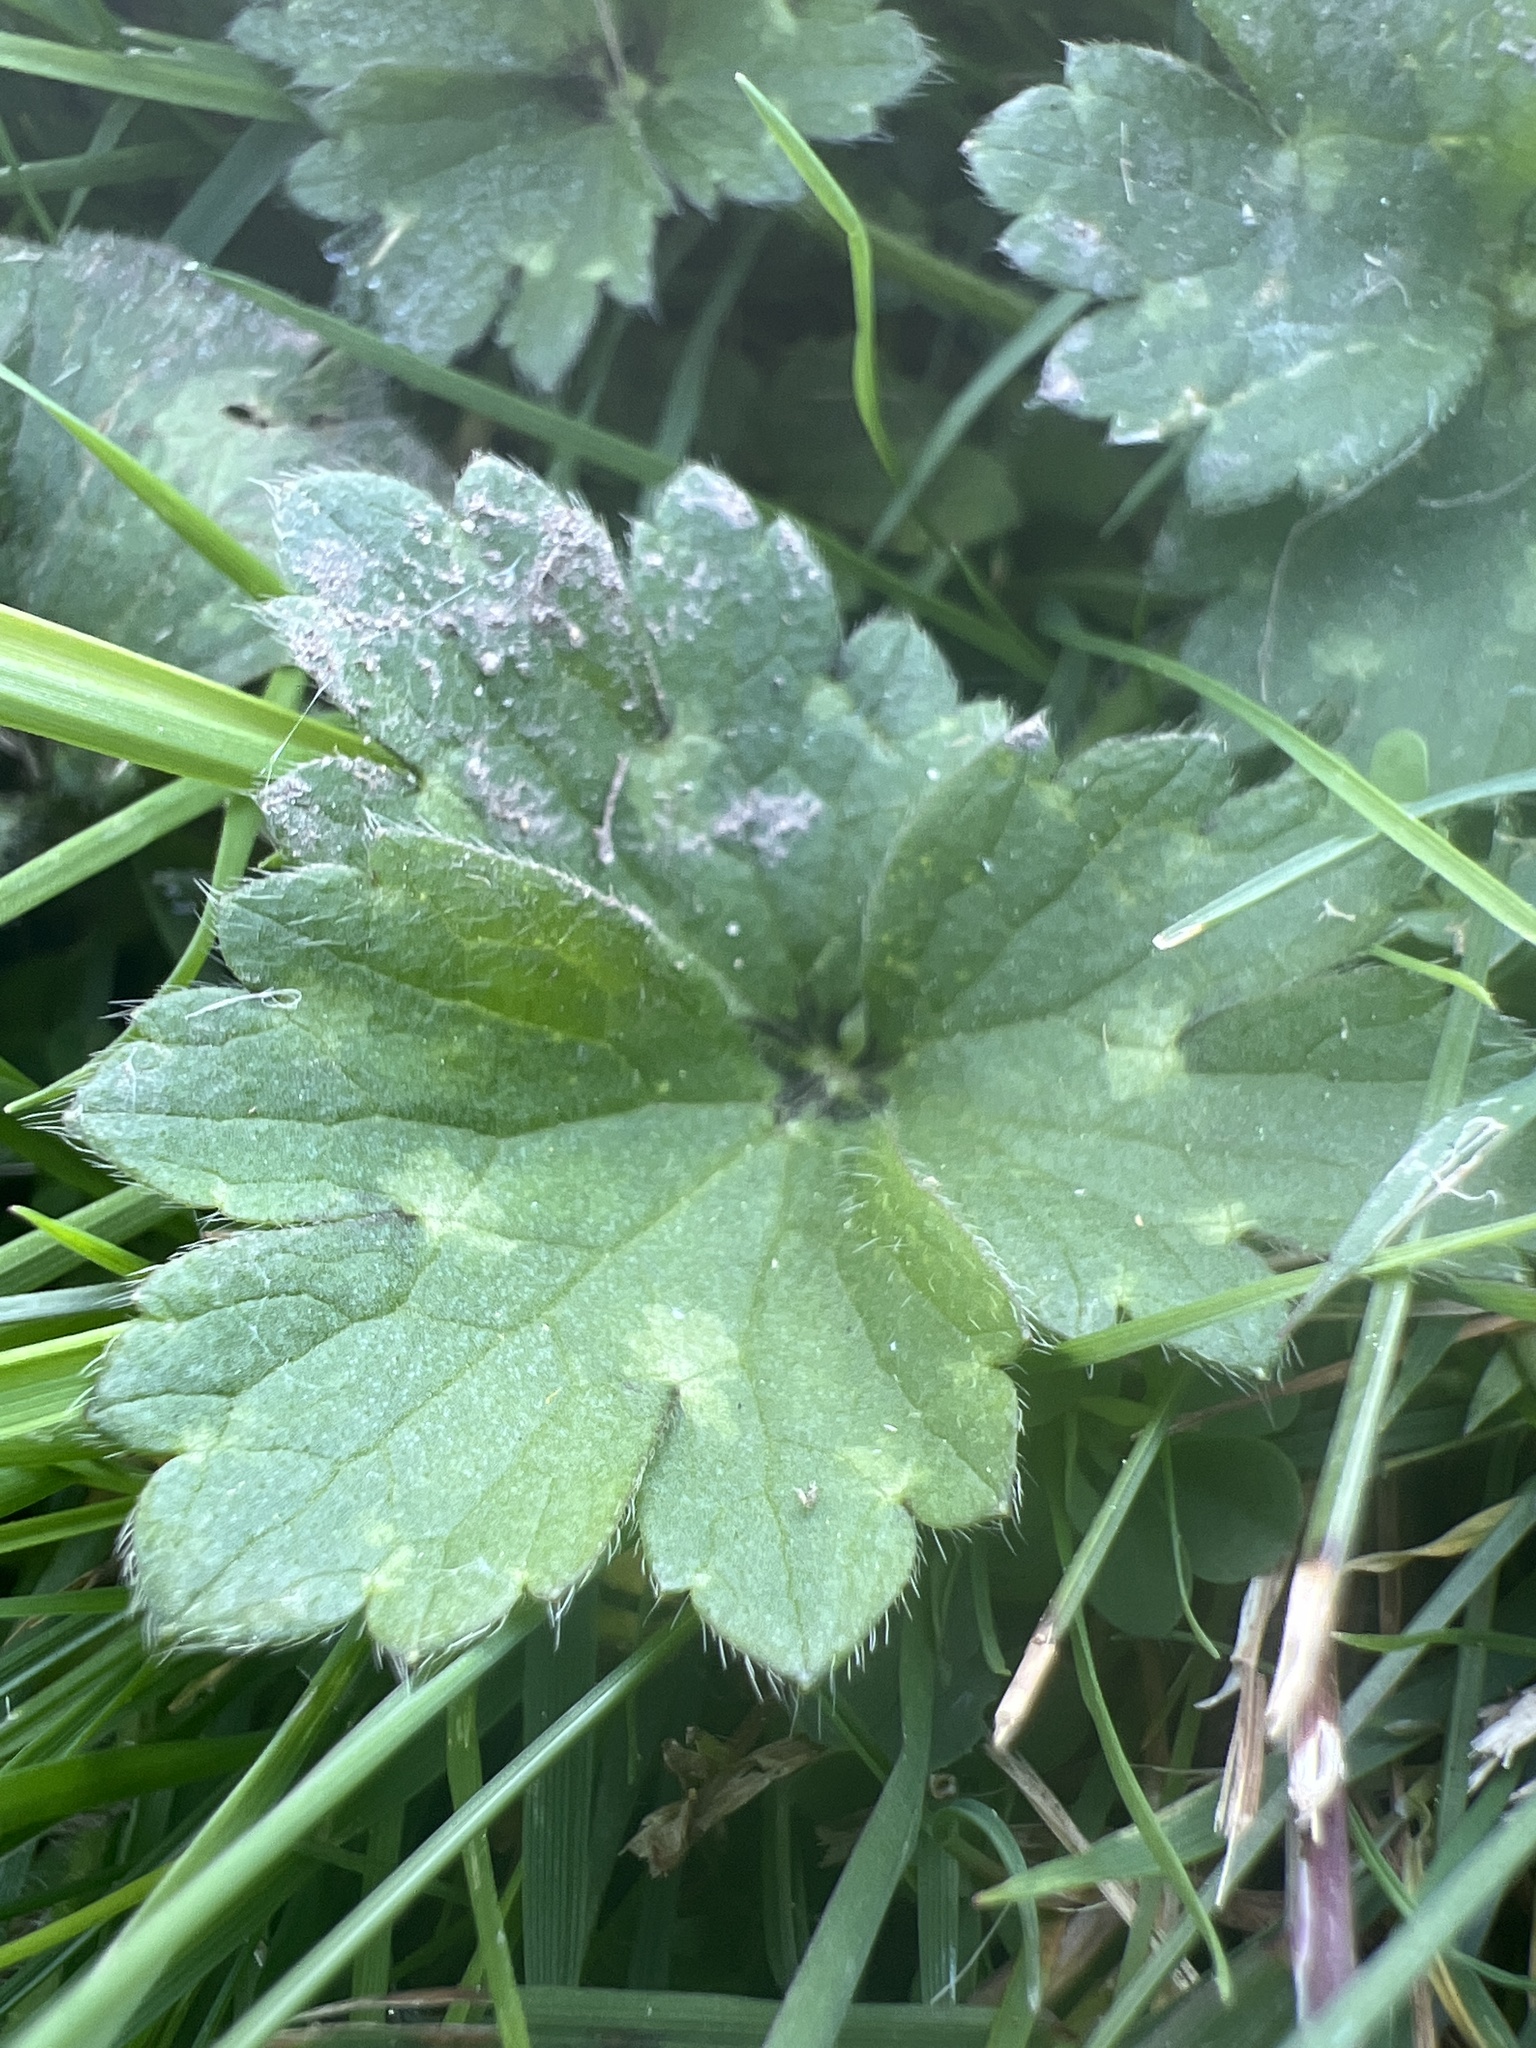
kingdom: Plantae
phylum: Tracheophyta
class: Magnoliopsida
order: Ranunculales
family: Ranunculaceae
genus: Ranunculus
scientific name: Ranunculus repens
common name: Creeping buttercup
